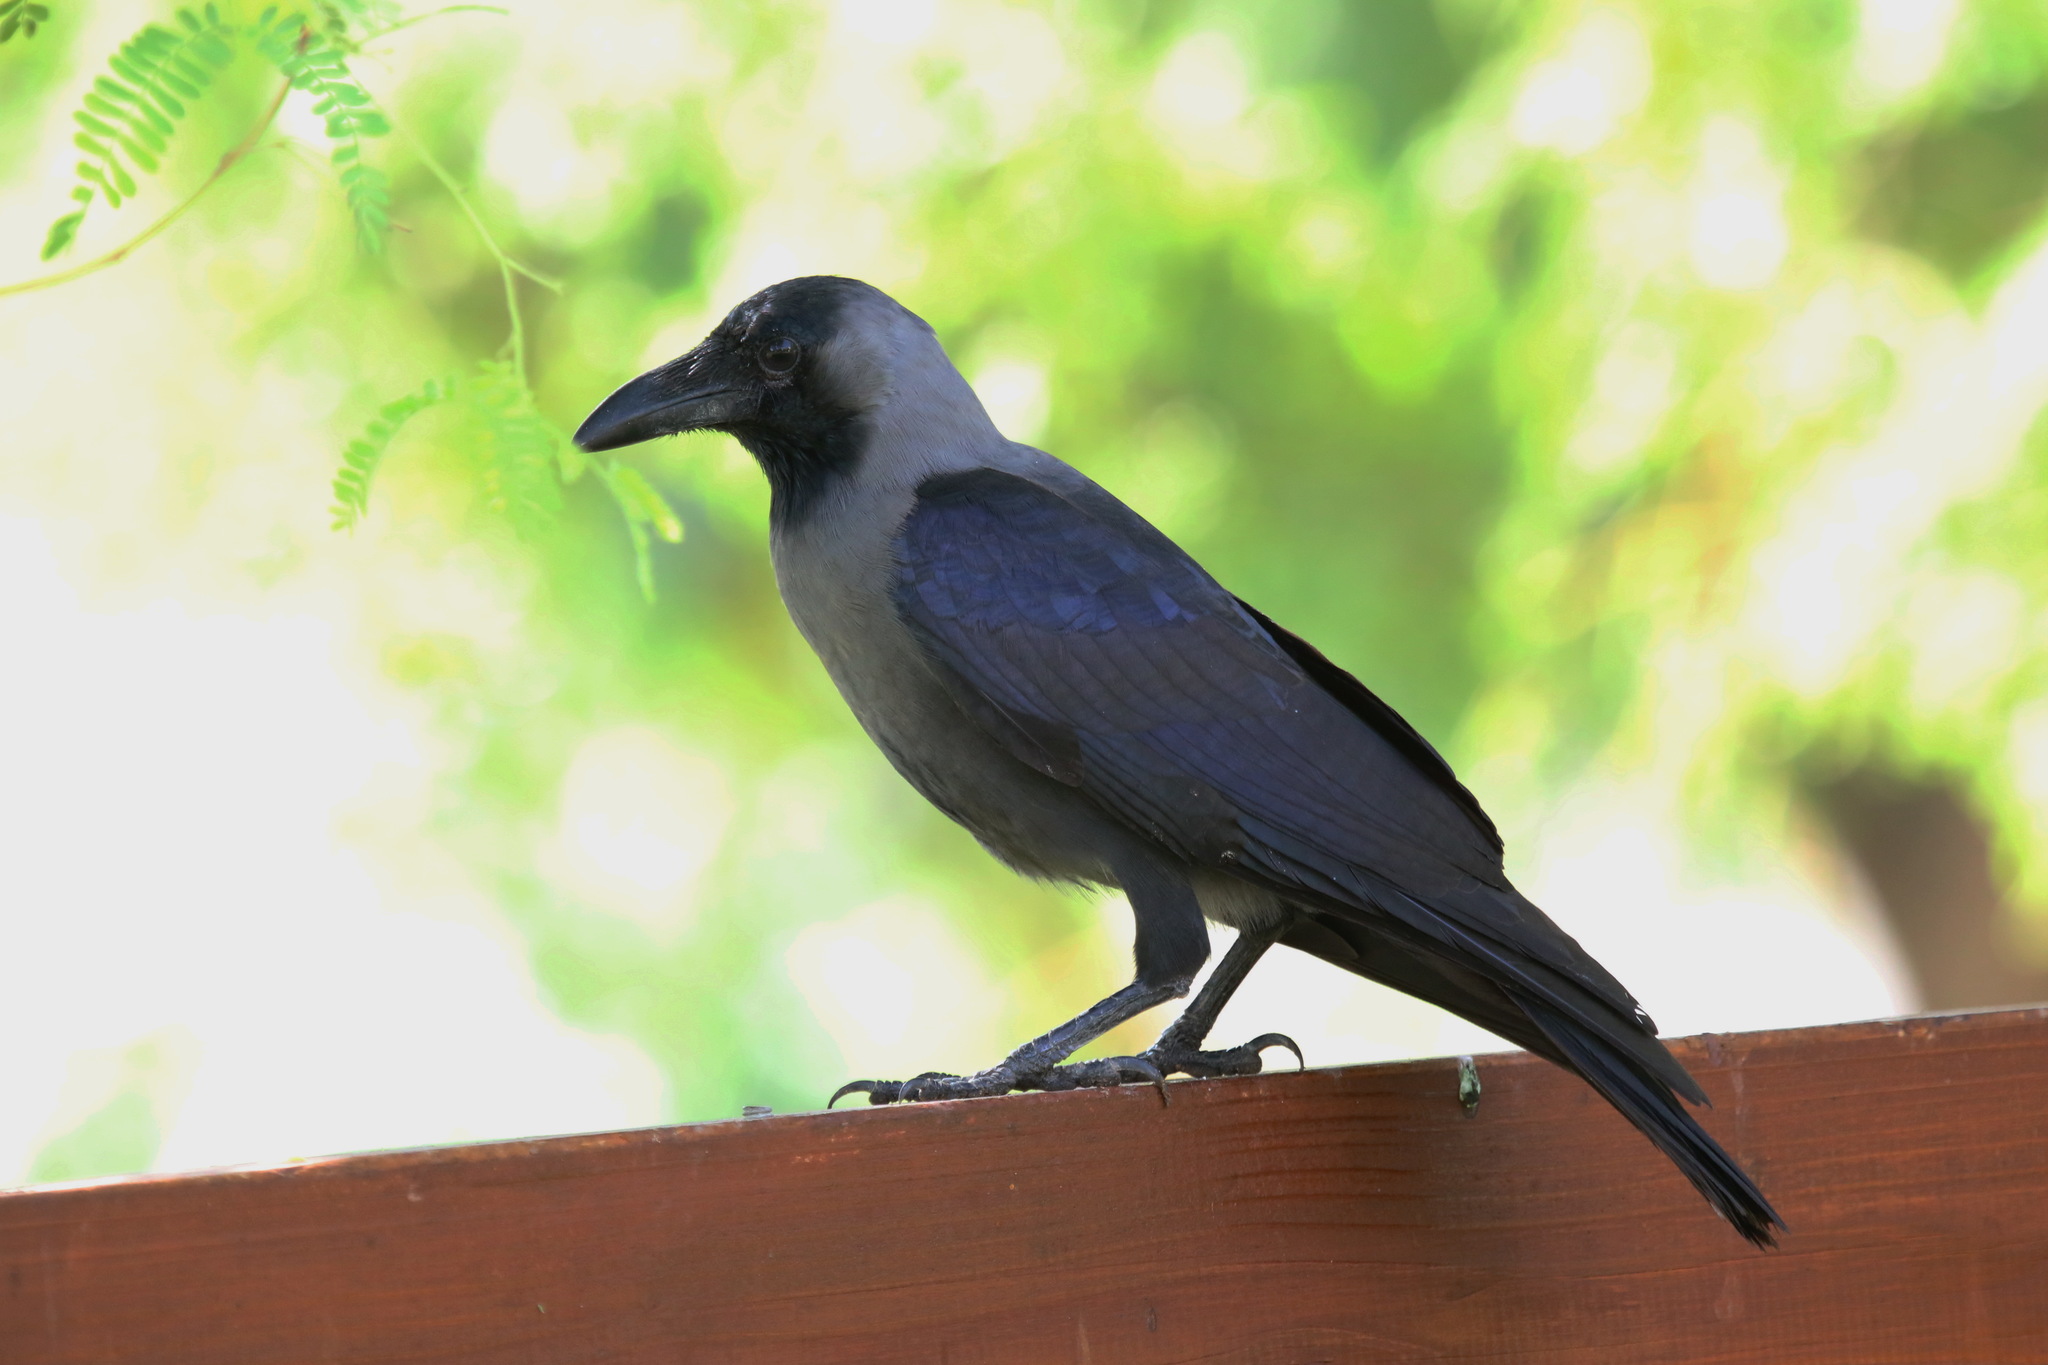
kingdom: Animalia
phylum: Chordata
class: Aves
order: Passeriformes
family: Corvidae
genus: Corvus
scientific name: Corvus splendens
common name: House crow
